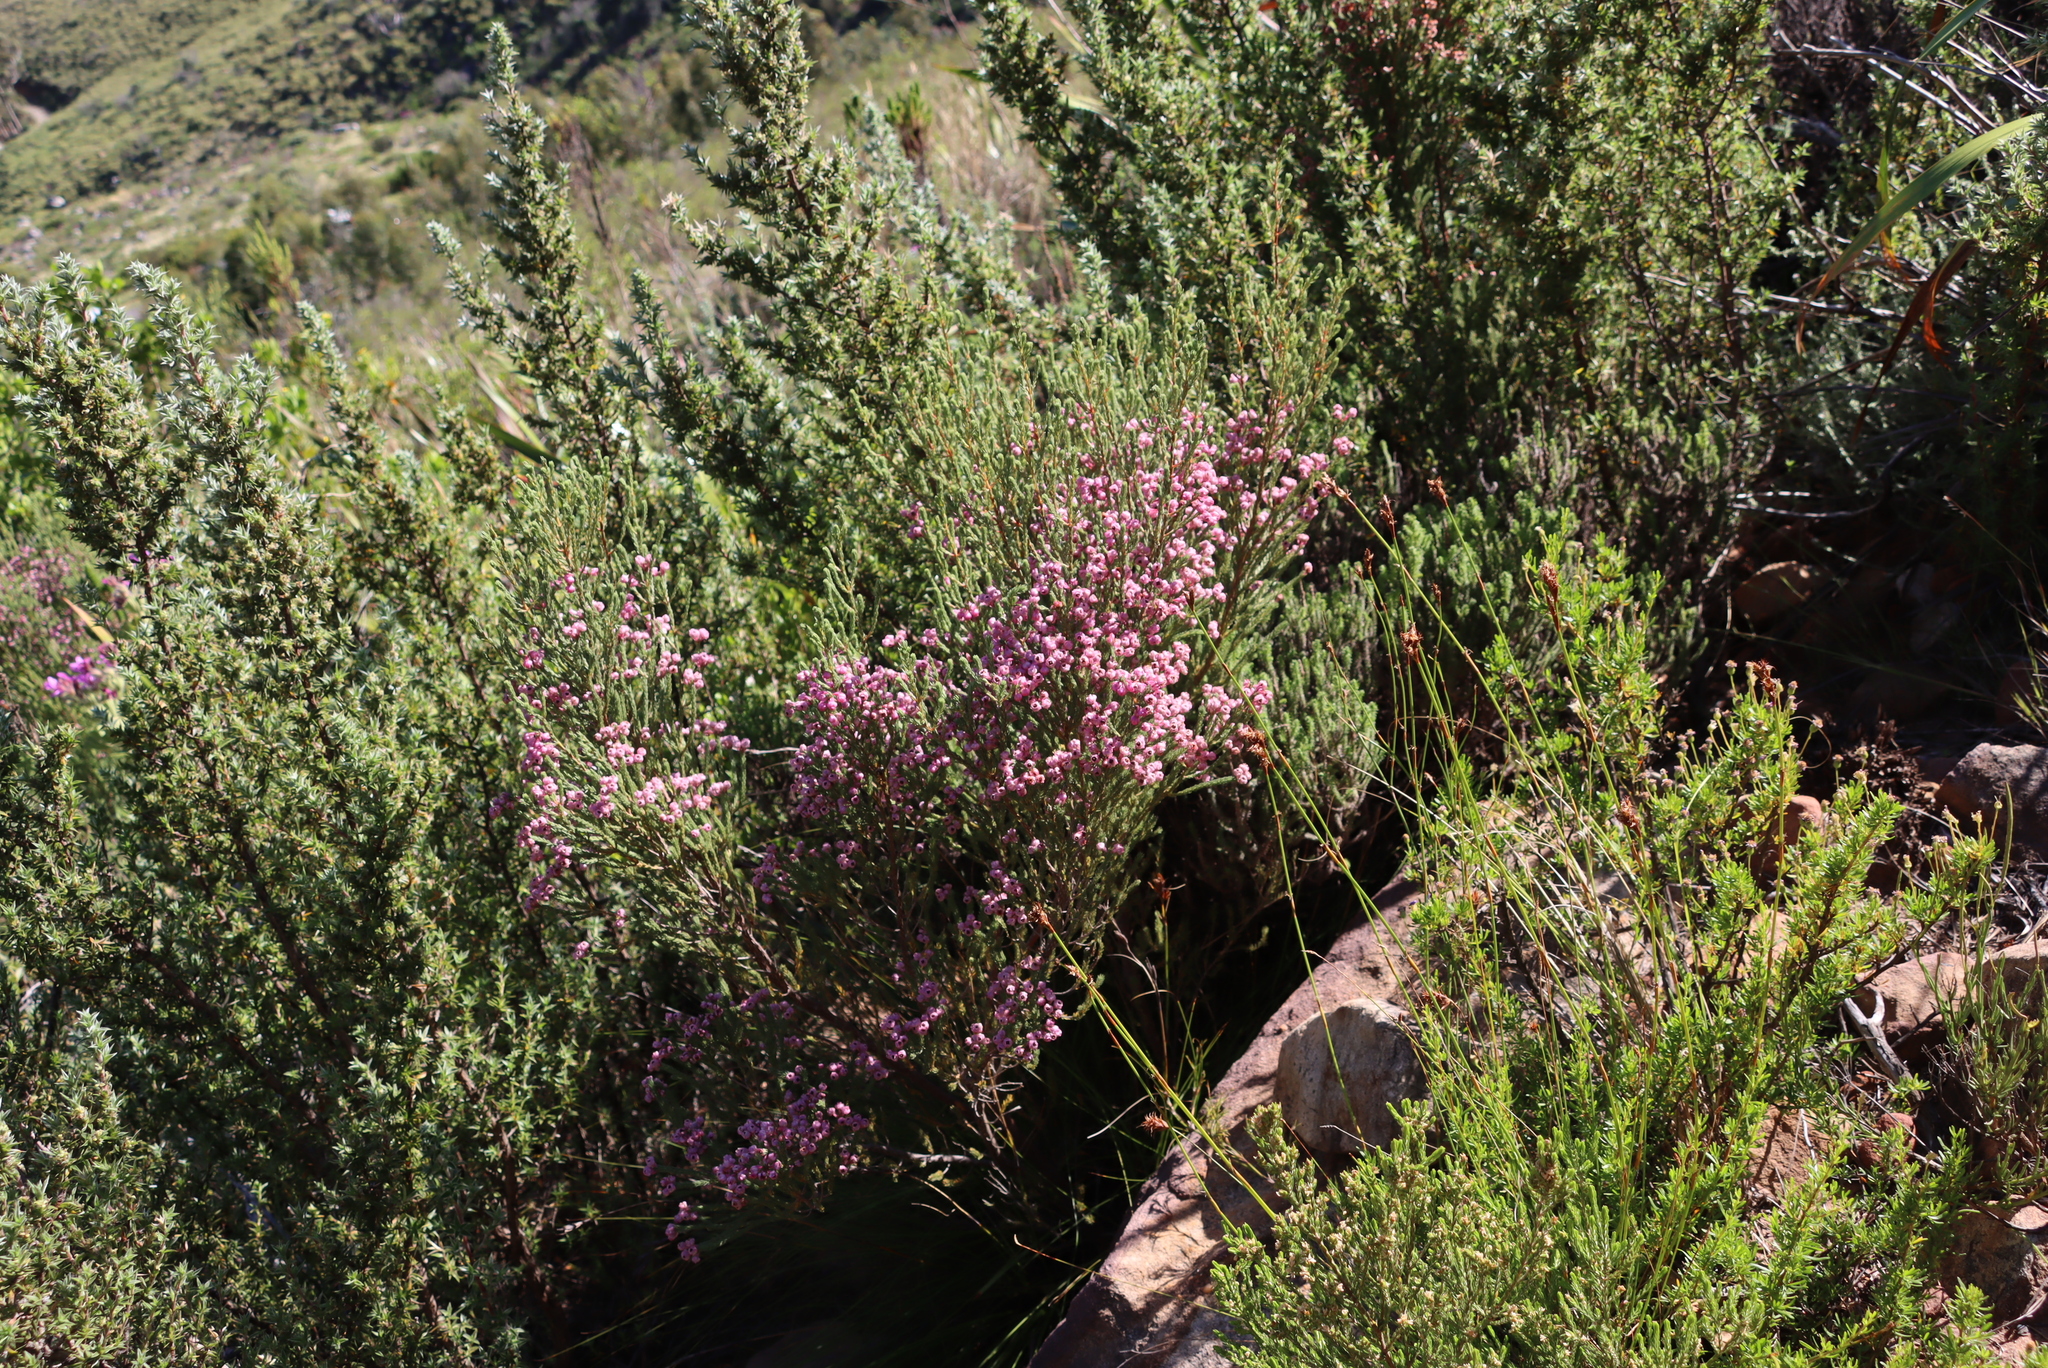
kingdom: Plantae
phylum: Tracheophyta
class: Magnoliopsida
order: Ericales
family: Ericaceae
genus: Erica
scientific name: Erica baccans
